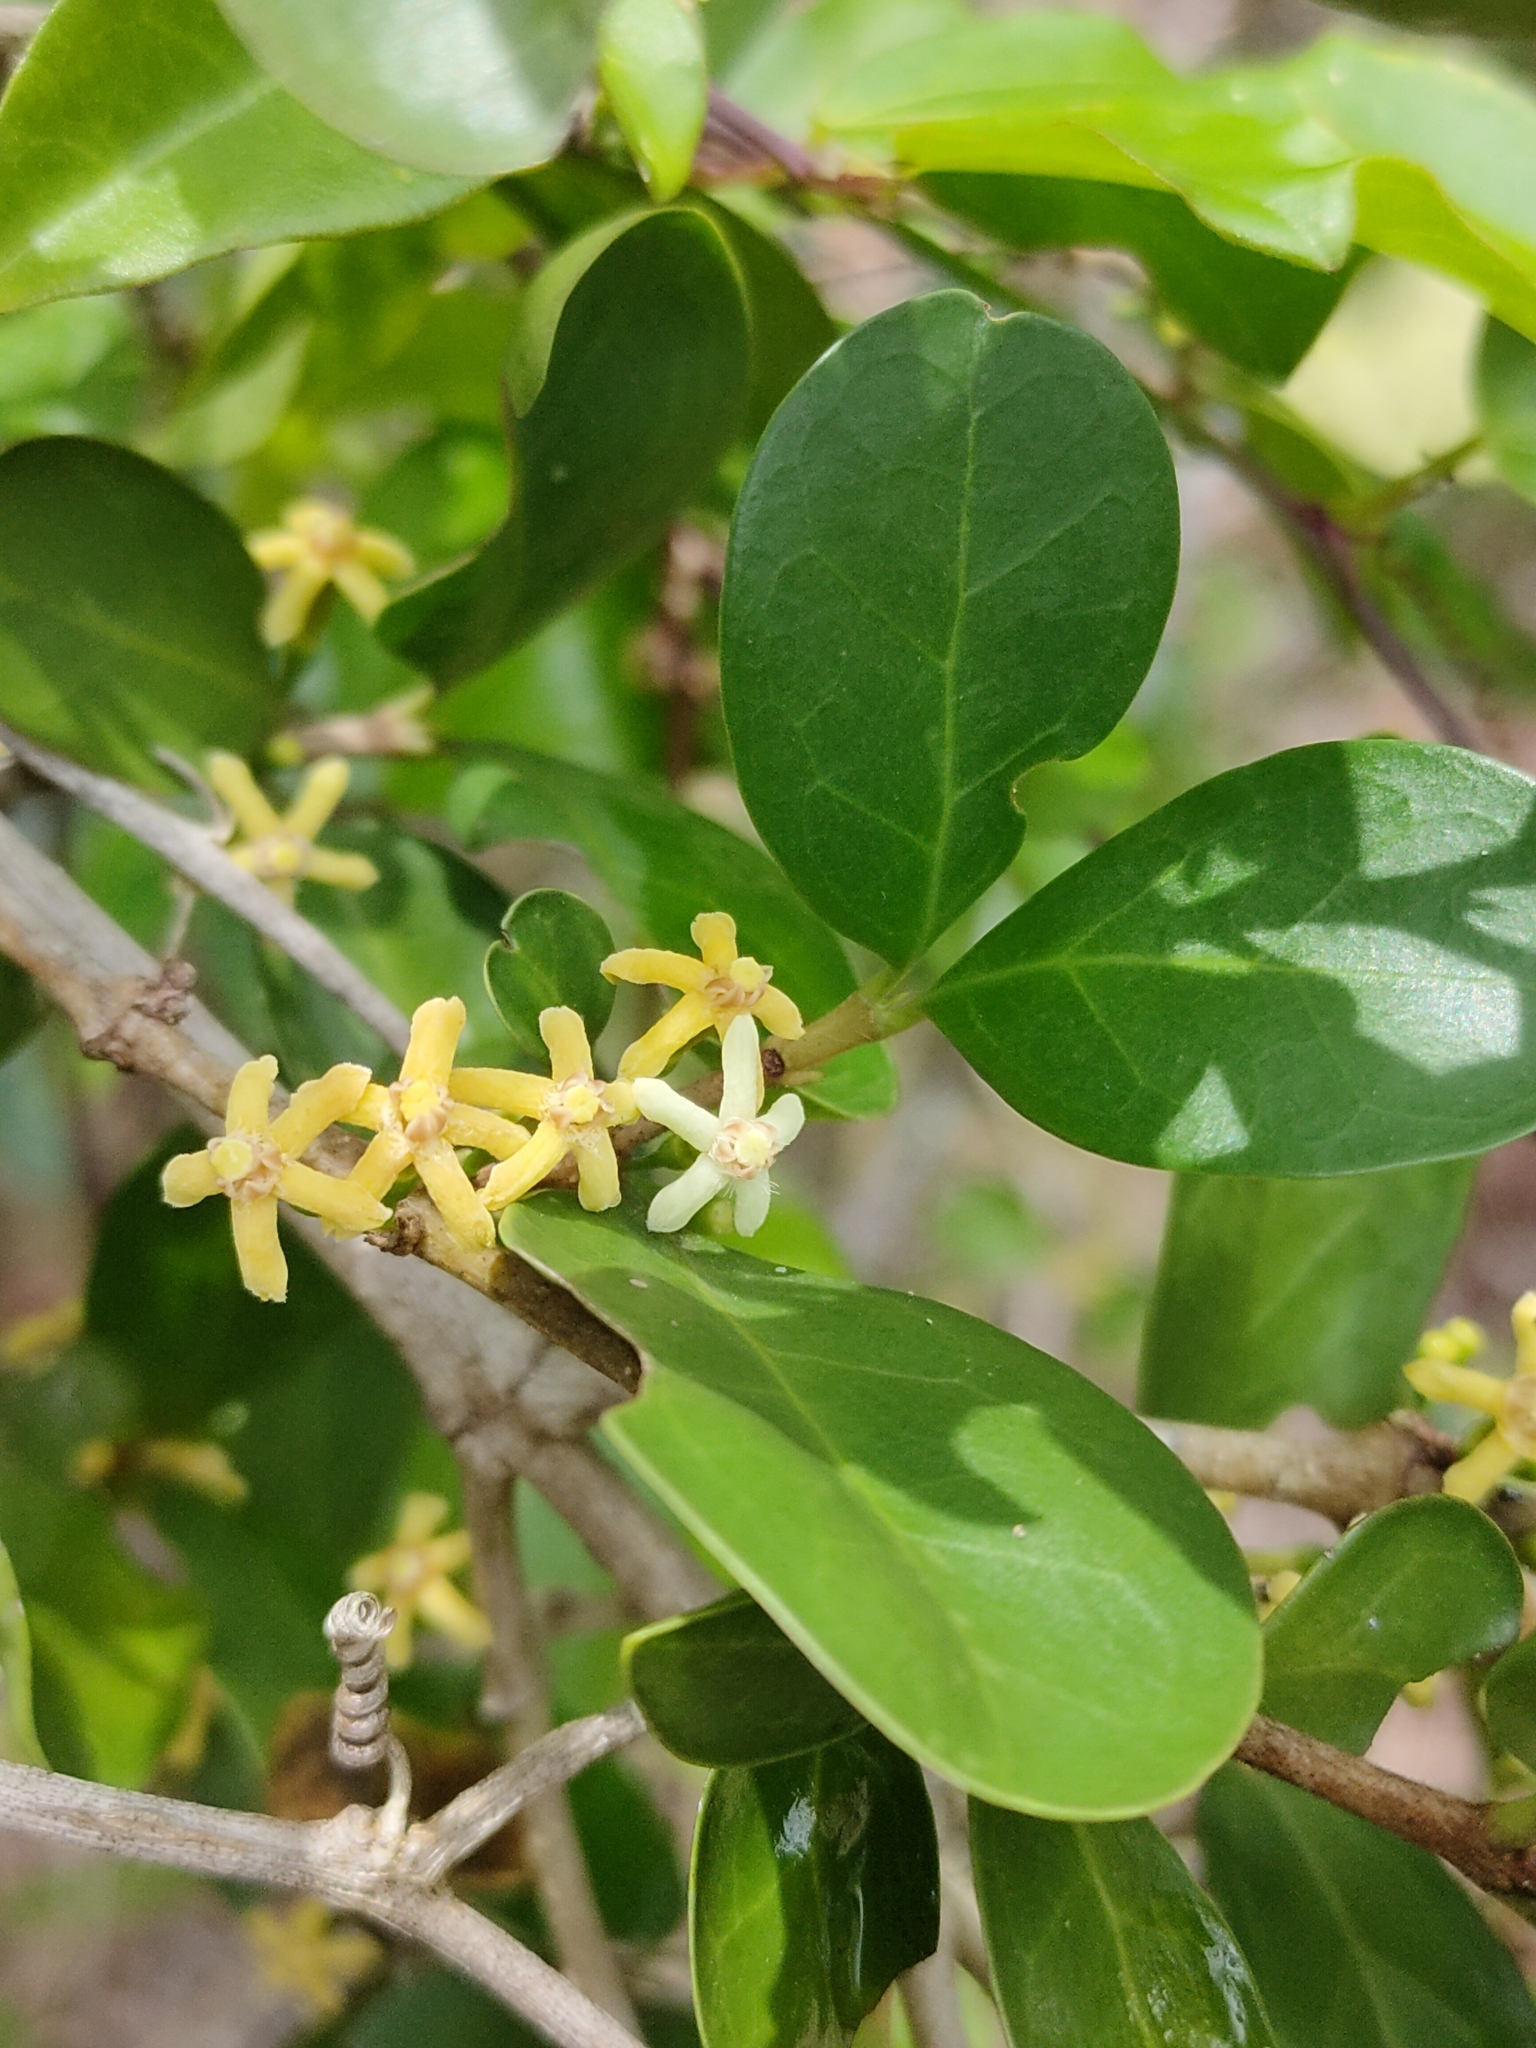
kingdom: Plantae
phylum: Tracheophyta
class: Magnoliopsida
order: Gentianales
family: Rubiaceae
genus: Cyclophyllum
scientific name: Cyclophyllum coprosmoides
